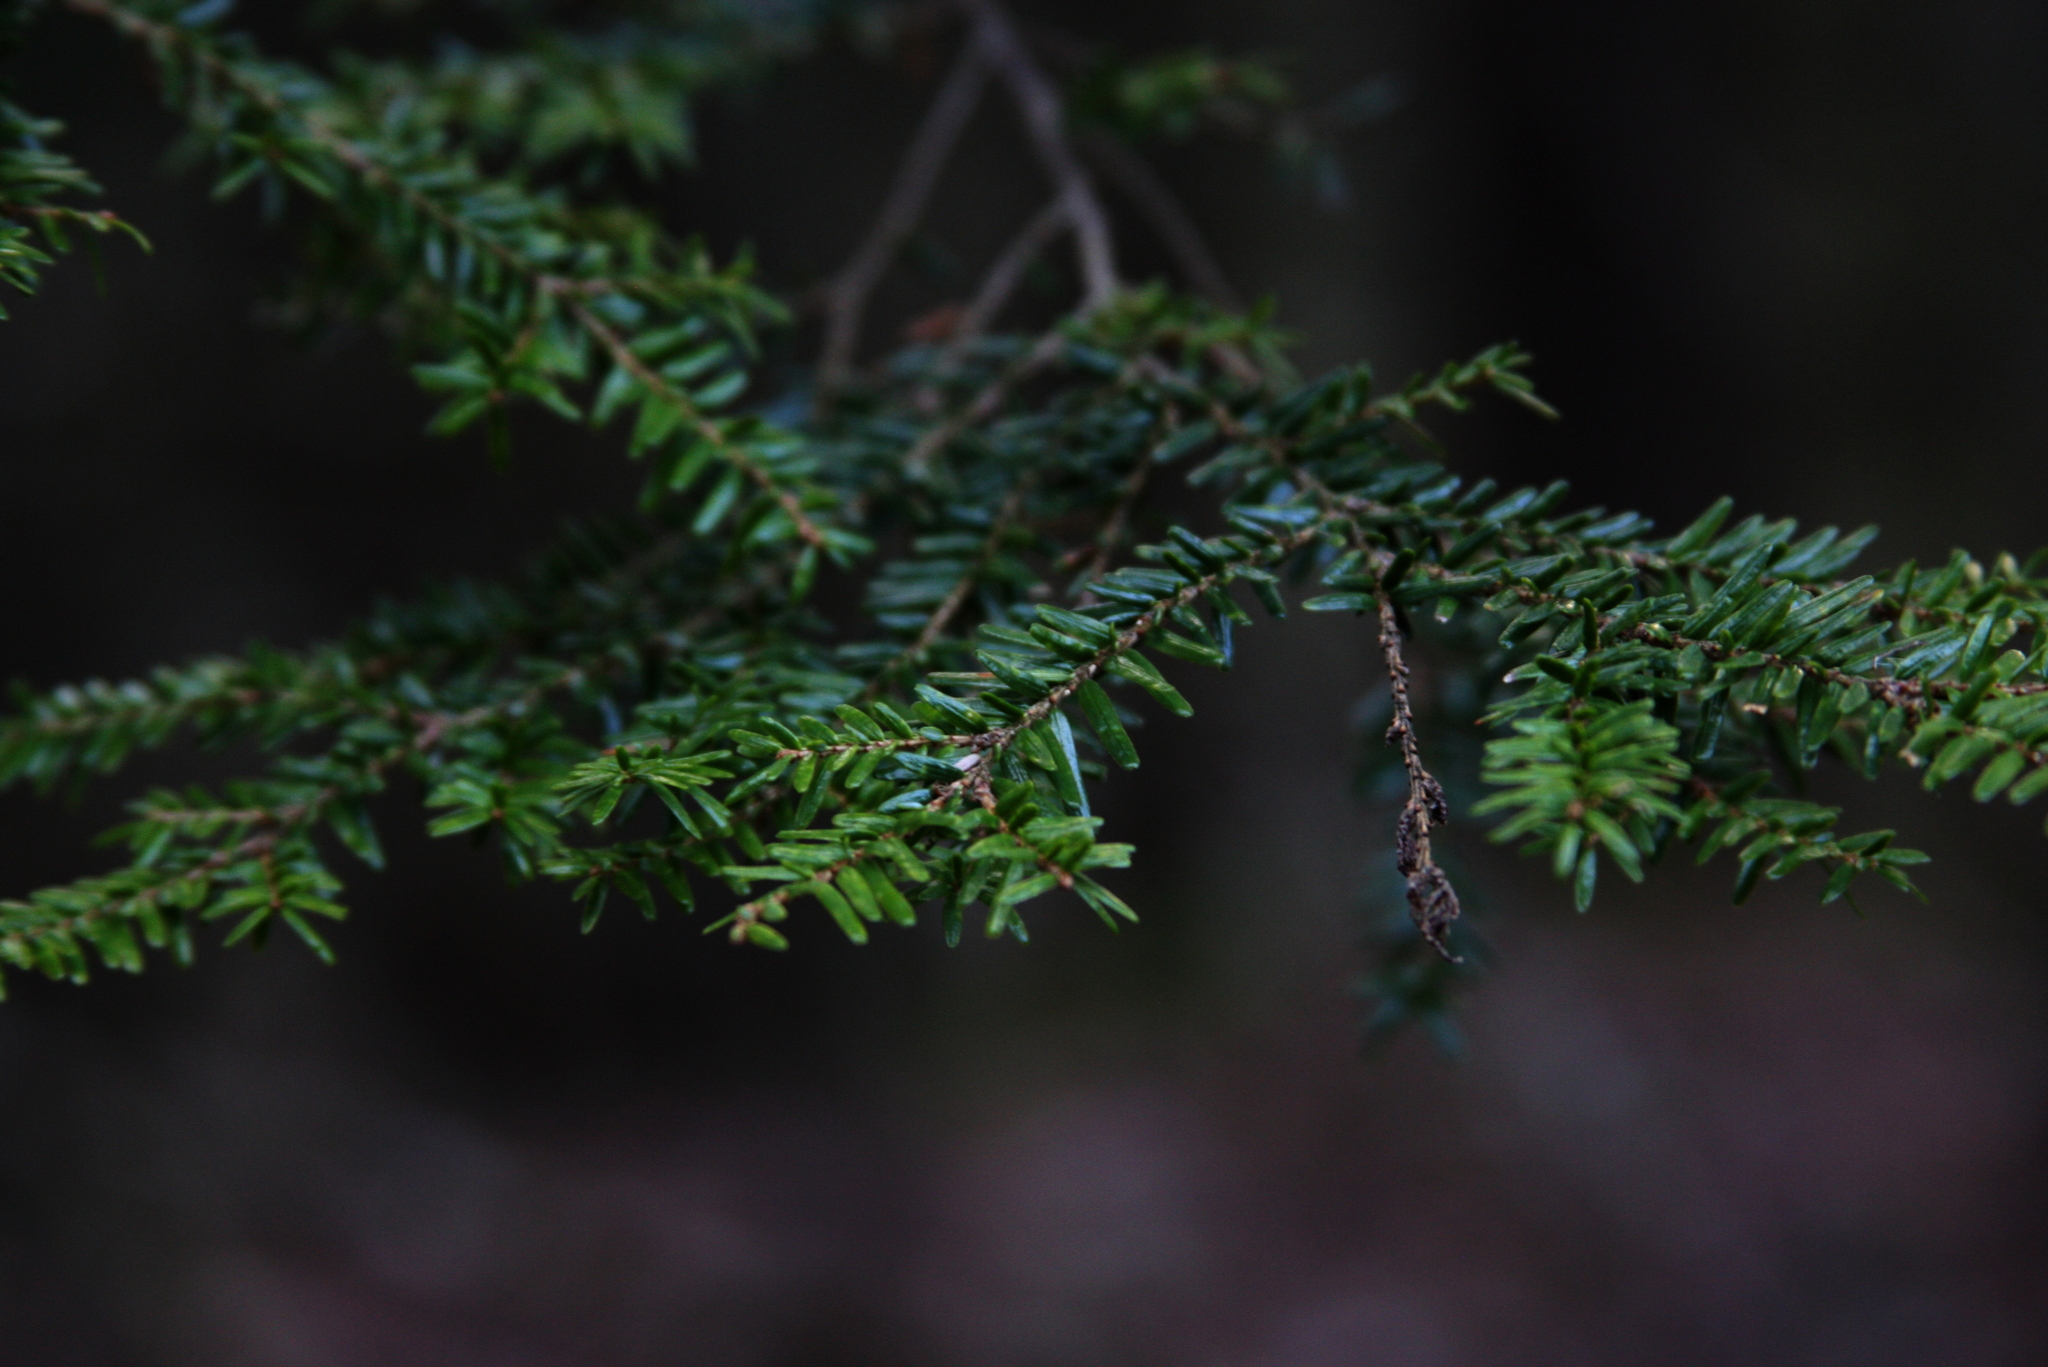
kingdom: Plantae
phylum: Tracheophyta
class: Pinopsida
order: Pinales
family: Pinaceae
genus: Tsuga
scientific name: Tsuga canadensis
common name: Eastern hemlock
